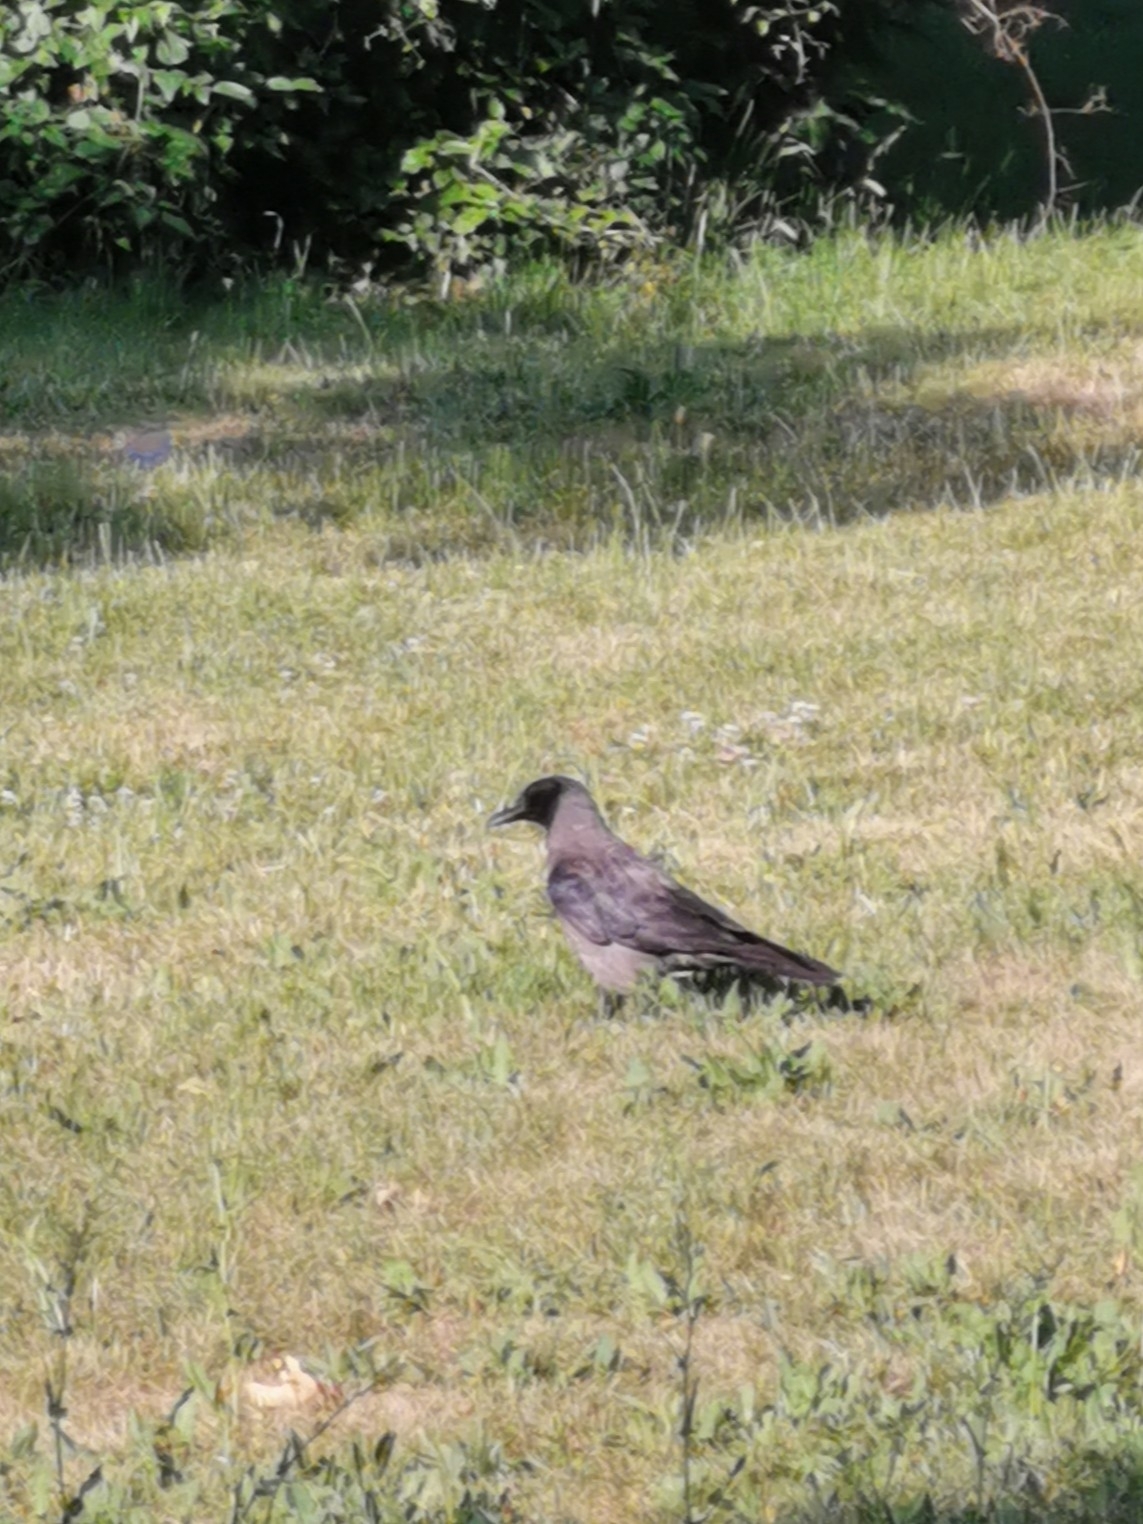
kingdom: Animalia
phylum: Chordata
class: Aves
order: Passeriformes
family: Corvidae
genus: Corvus
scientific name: Corvus
